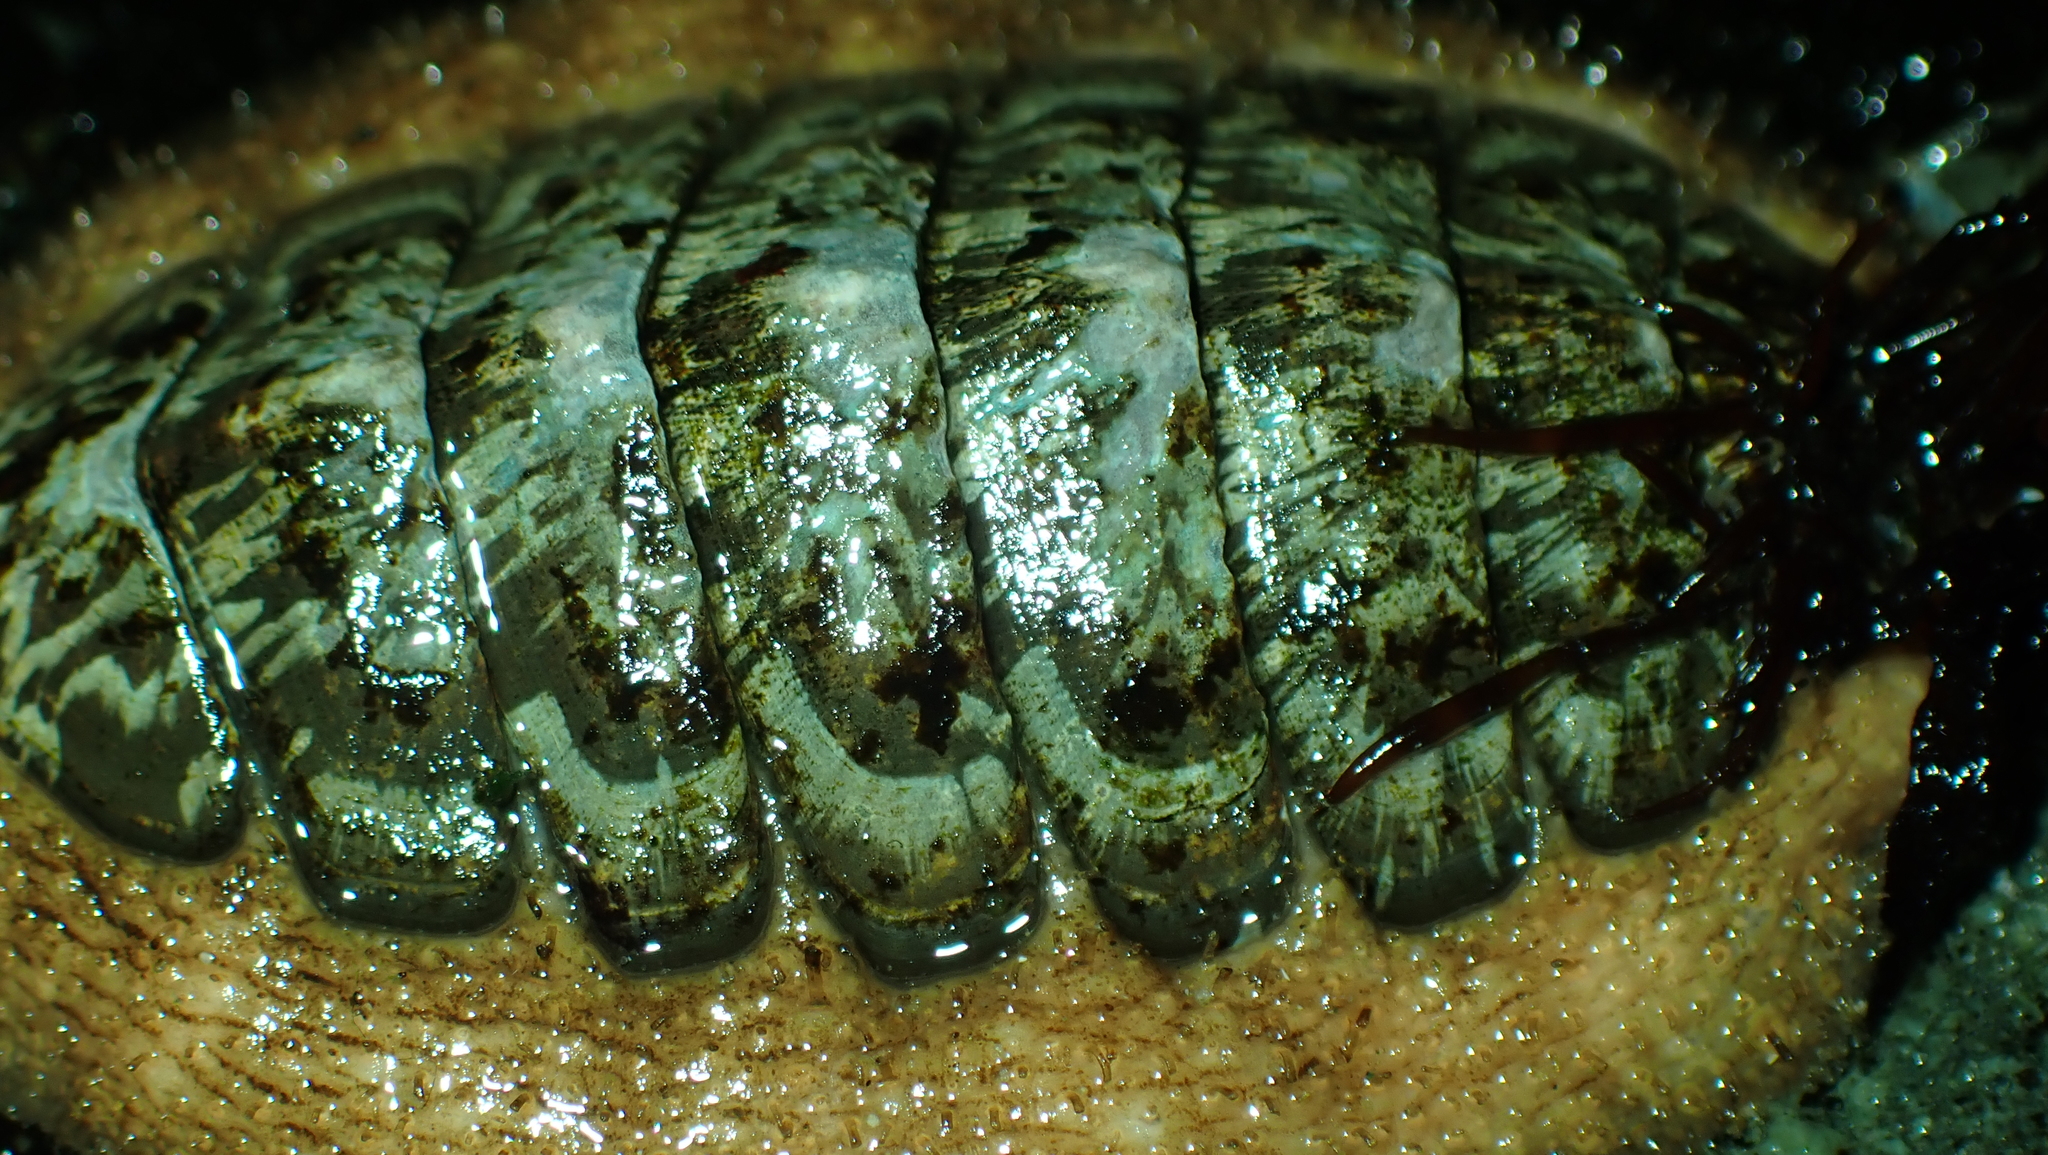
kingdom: Animalia
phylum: Mollusca
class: Polyplacophora
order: Chitonida
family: Mopaliidae
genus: Mopalia
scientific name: Mopalia lignosa
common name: Woody chiton
